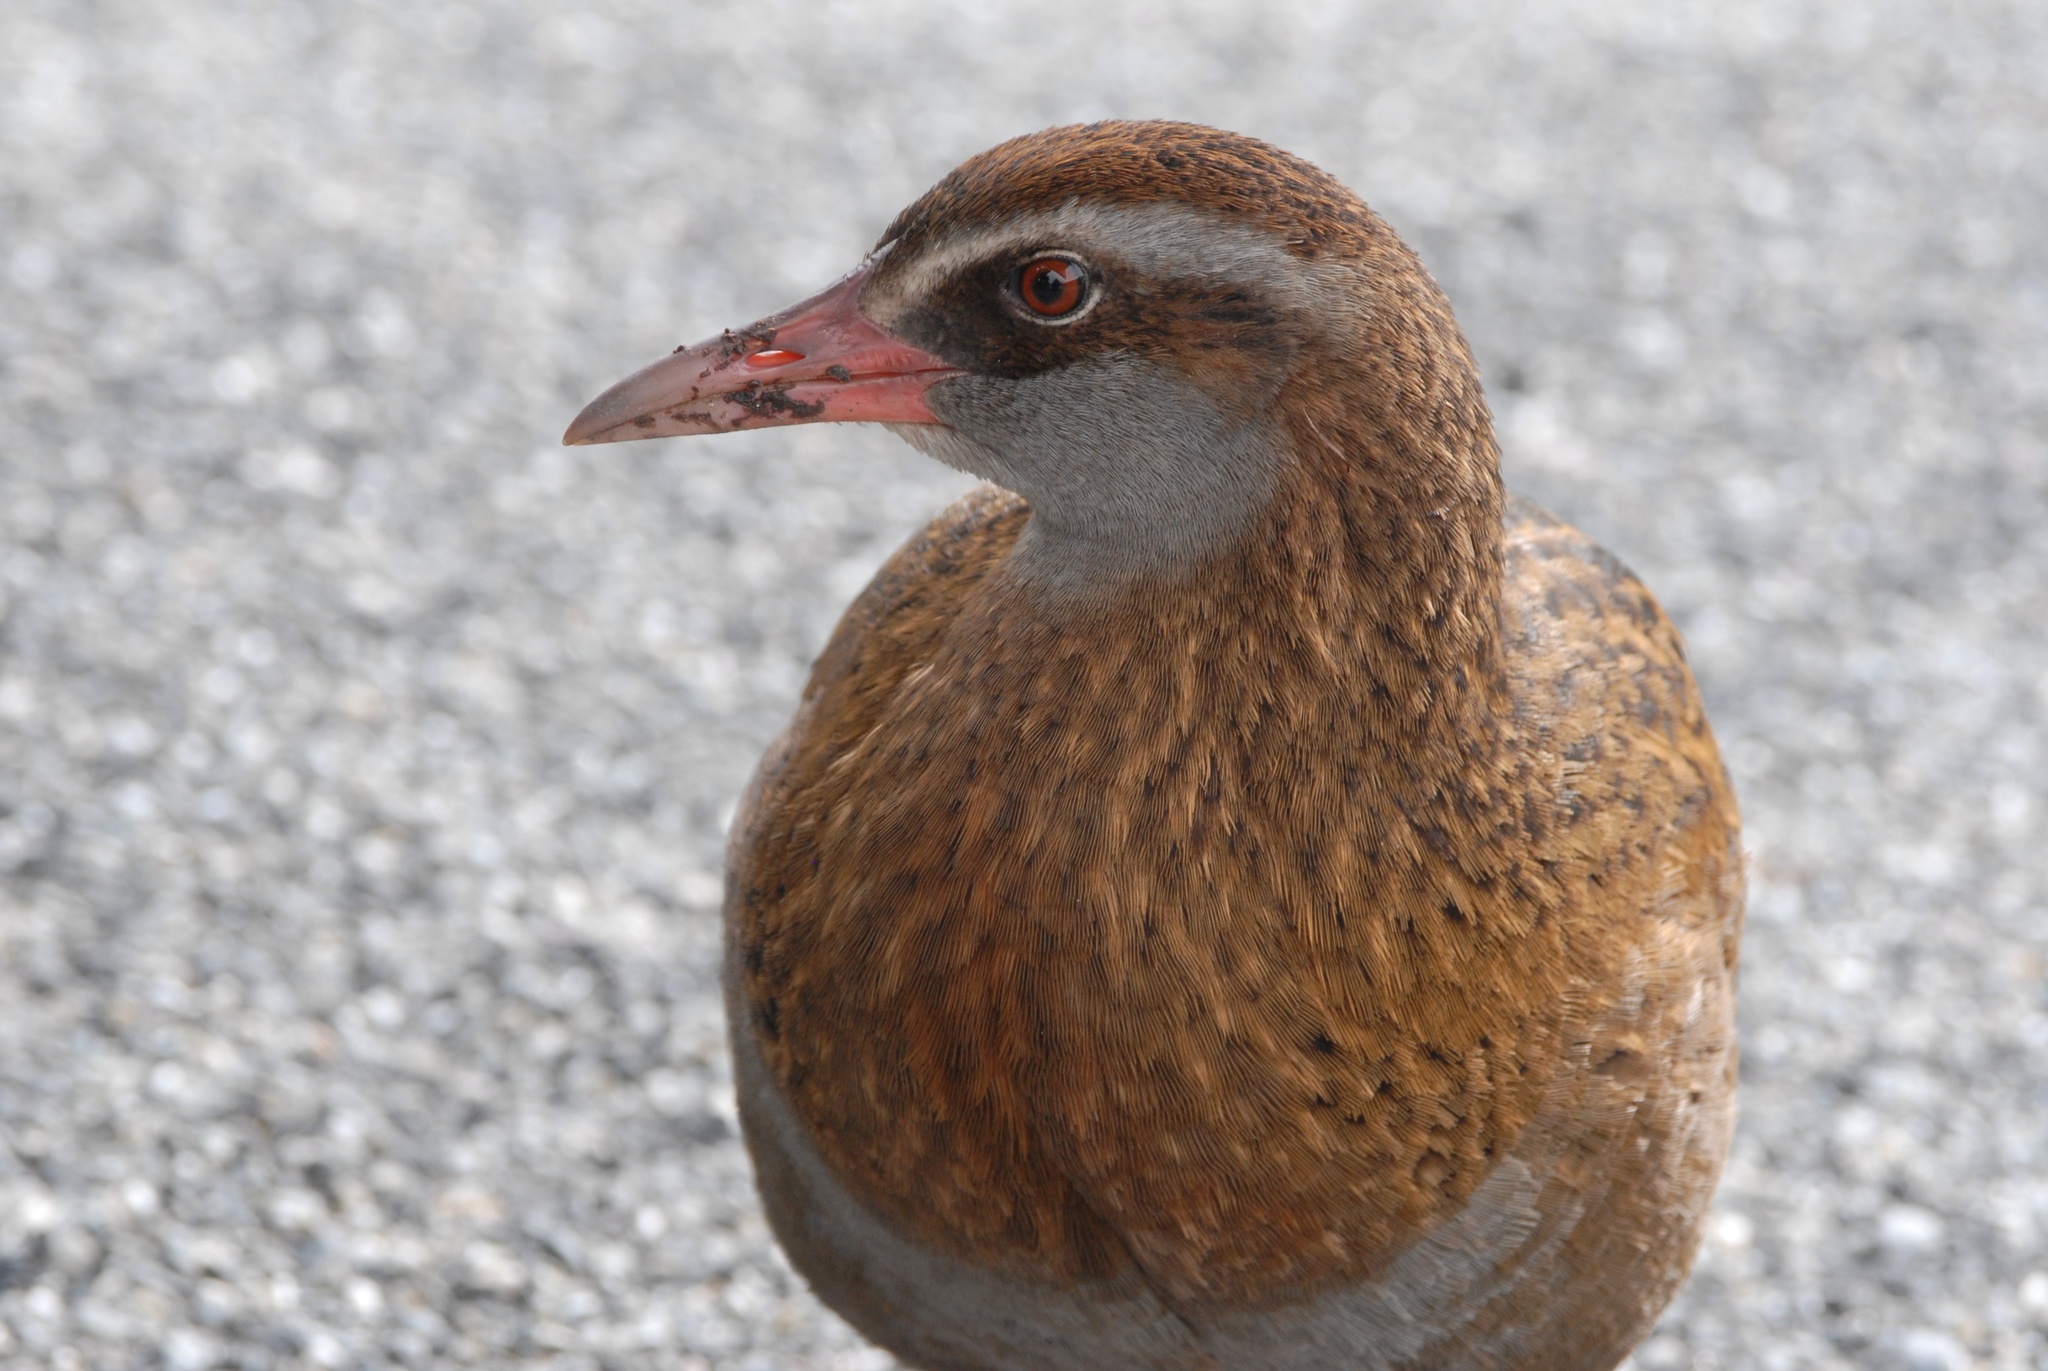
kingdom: Animalia
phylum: Chordata
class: Aves
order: Gruiformes
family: Rallidae
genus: Gallirallus
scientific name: Gallirallus australis
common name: Weka
